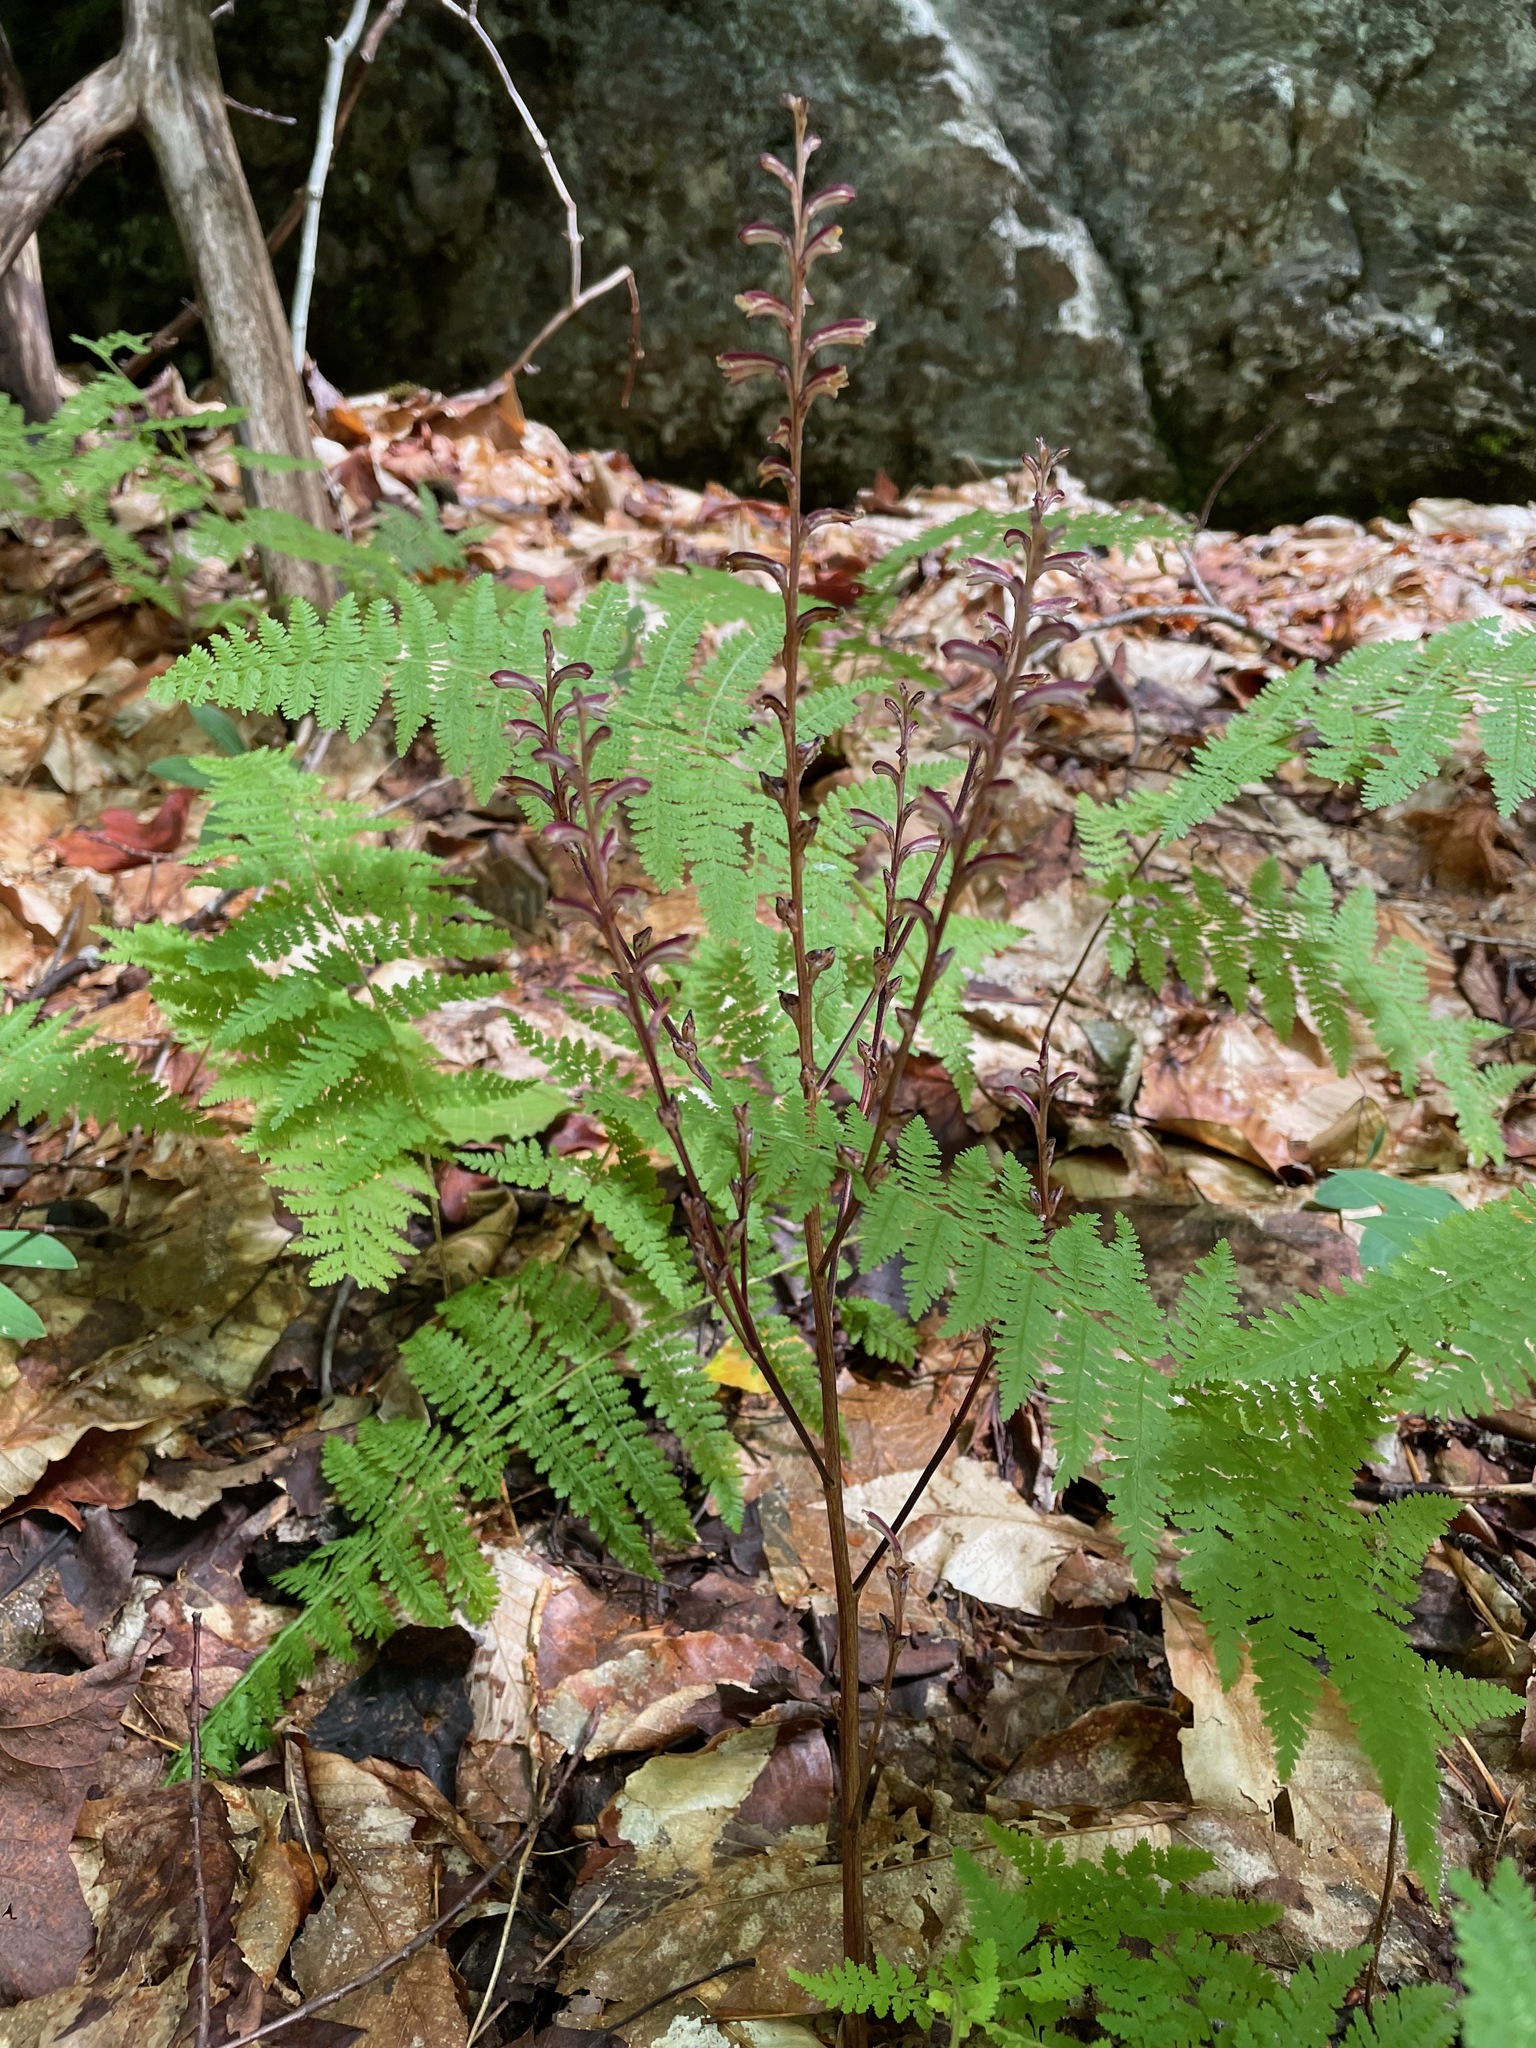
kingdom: Plantae
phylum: Tracheophyta
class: Magnoliopsida
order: Lamiales
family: Orobanchaceae
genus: Epifagus
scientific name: Epifagus virginiana
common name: Beechdrops
